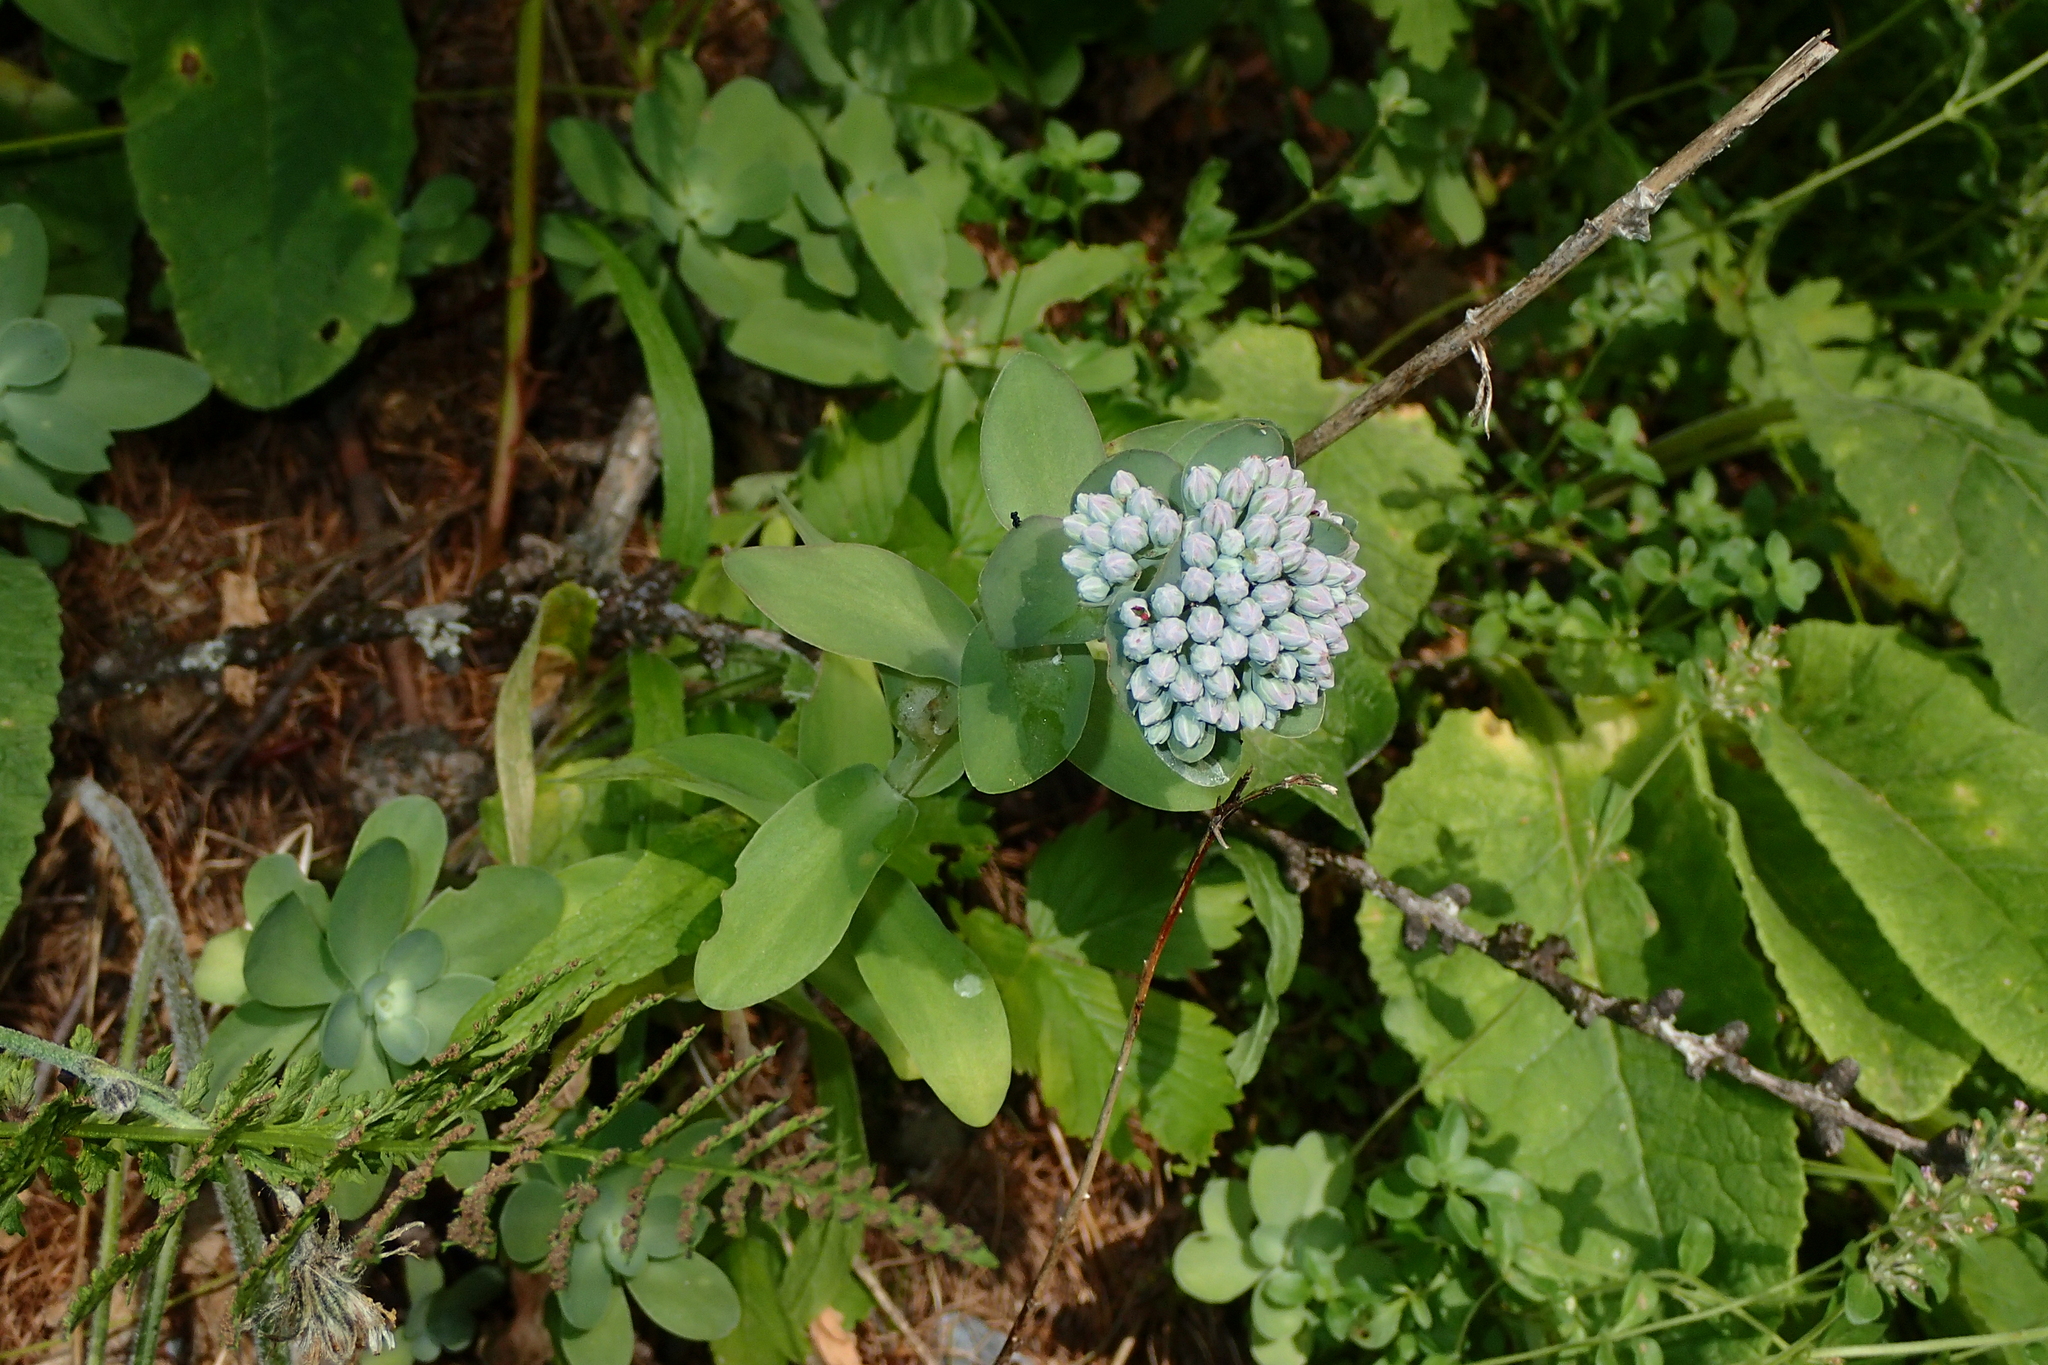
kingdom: Plantae
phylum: Tracheophyta
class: Magnoliopsida
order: Saxifragales
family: Crassulaceae
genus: Hylotelephium
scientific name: Hylotelephium anacampseros
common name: Love-restorer
